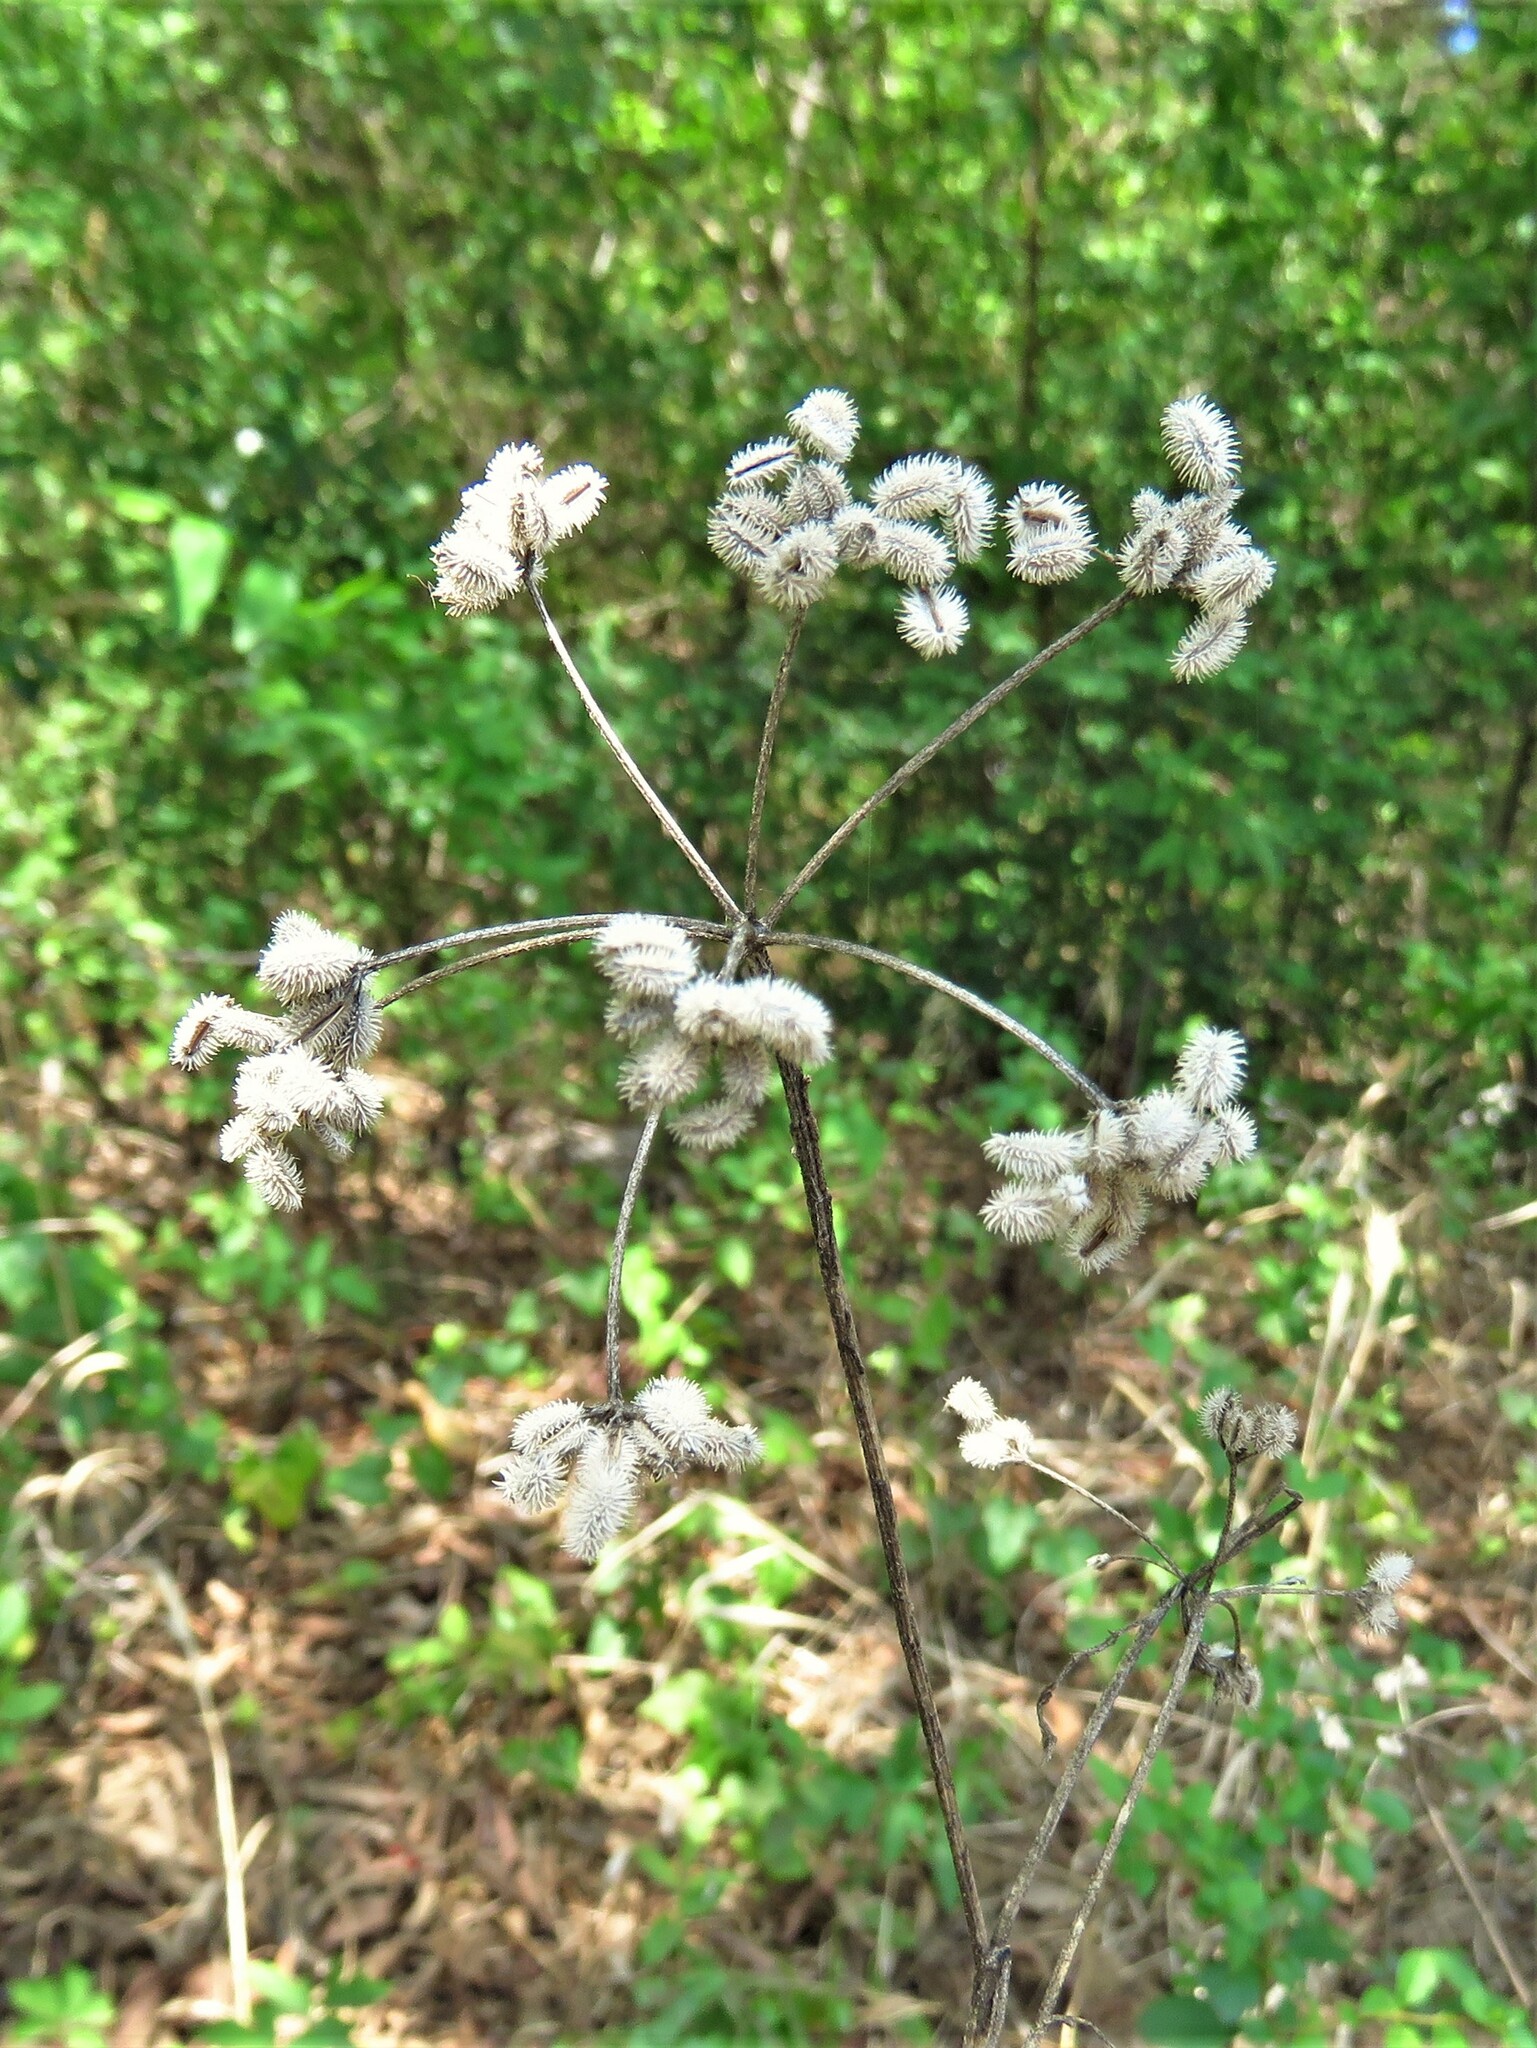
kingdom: Plantae
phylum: Tracheophyta
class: Magnoliopsida
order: Apiales
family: Apiaceae
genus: Torilis
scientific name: Torilis arvensis
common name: Spreading hedge-parsley
